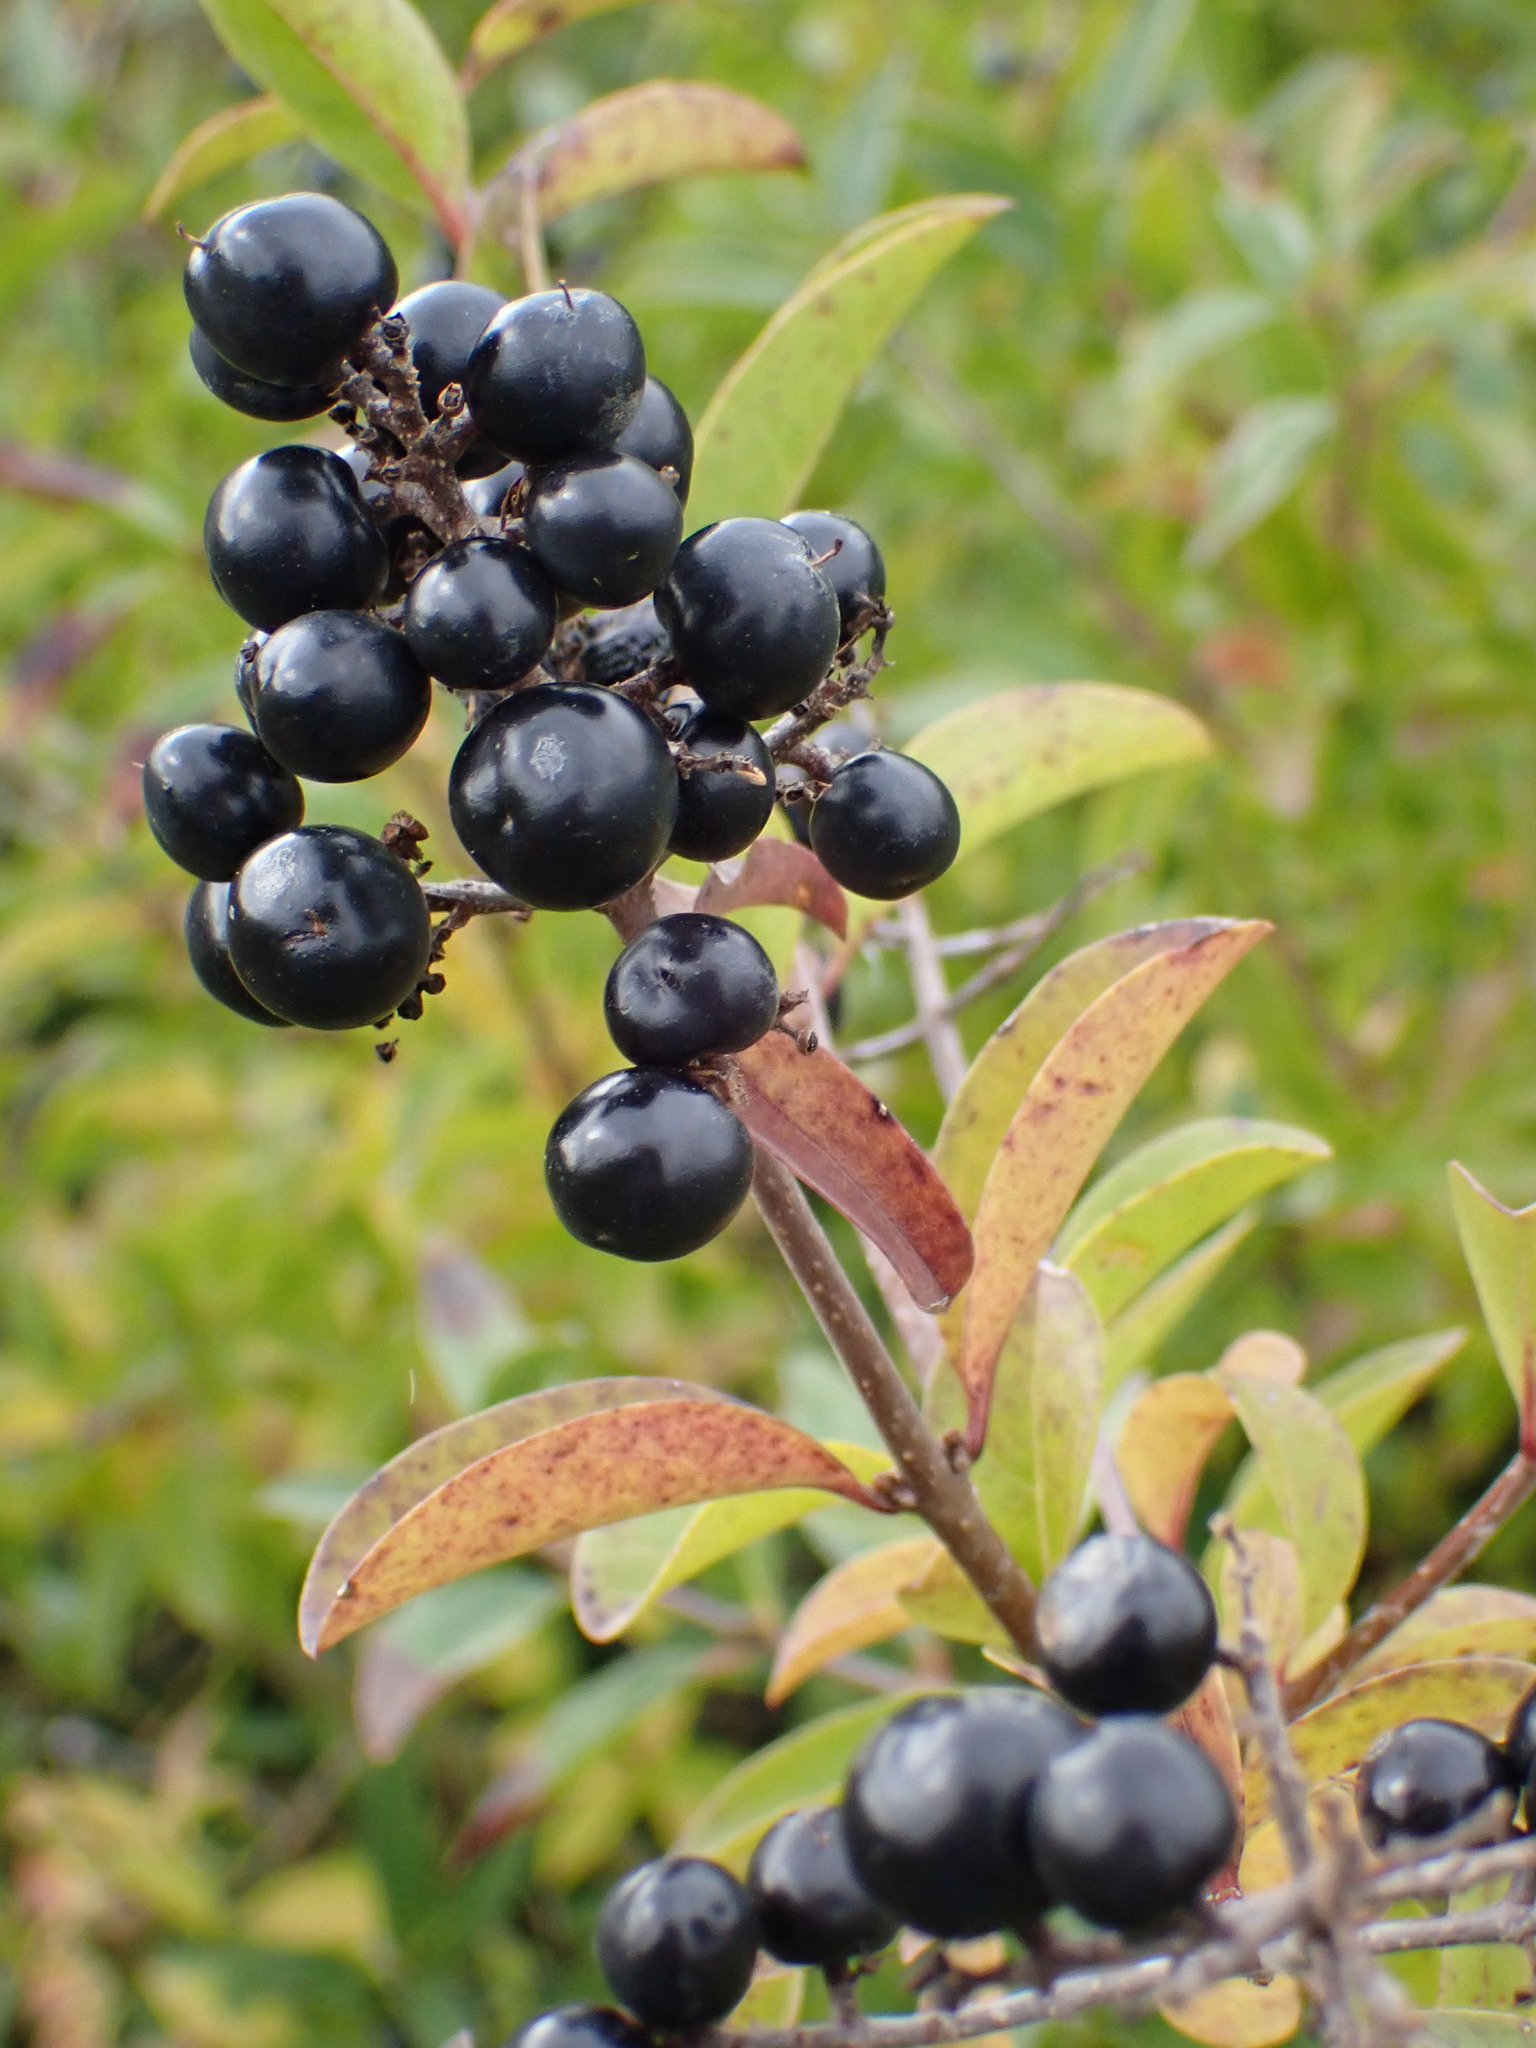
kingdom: Plantae
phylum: Tracheophyta
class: Magnoliopsida
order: Lamiales
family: Oleaceae
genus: Ligustrum
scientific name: Ligustrum vulgare
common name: Wild privet
